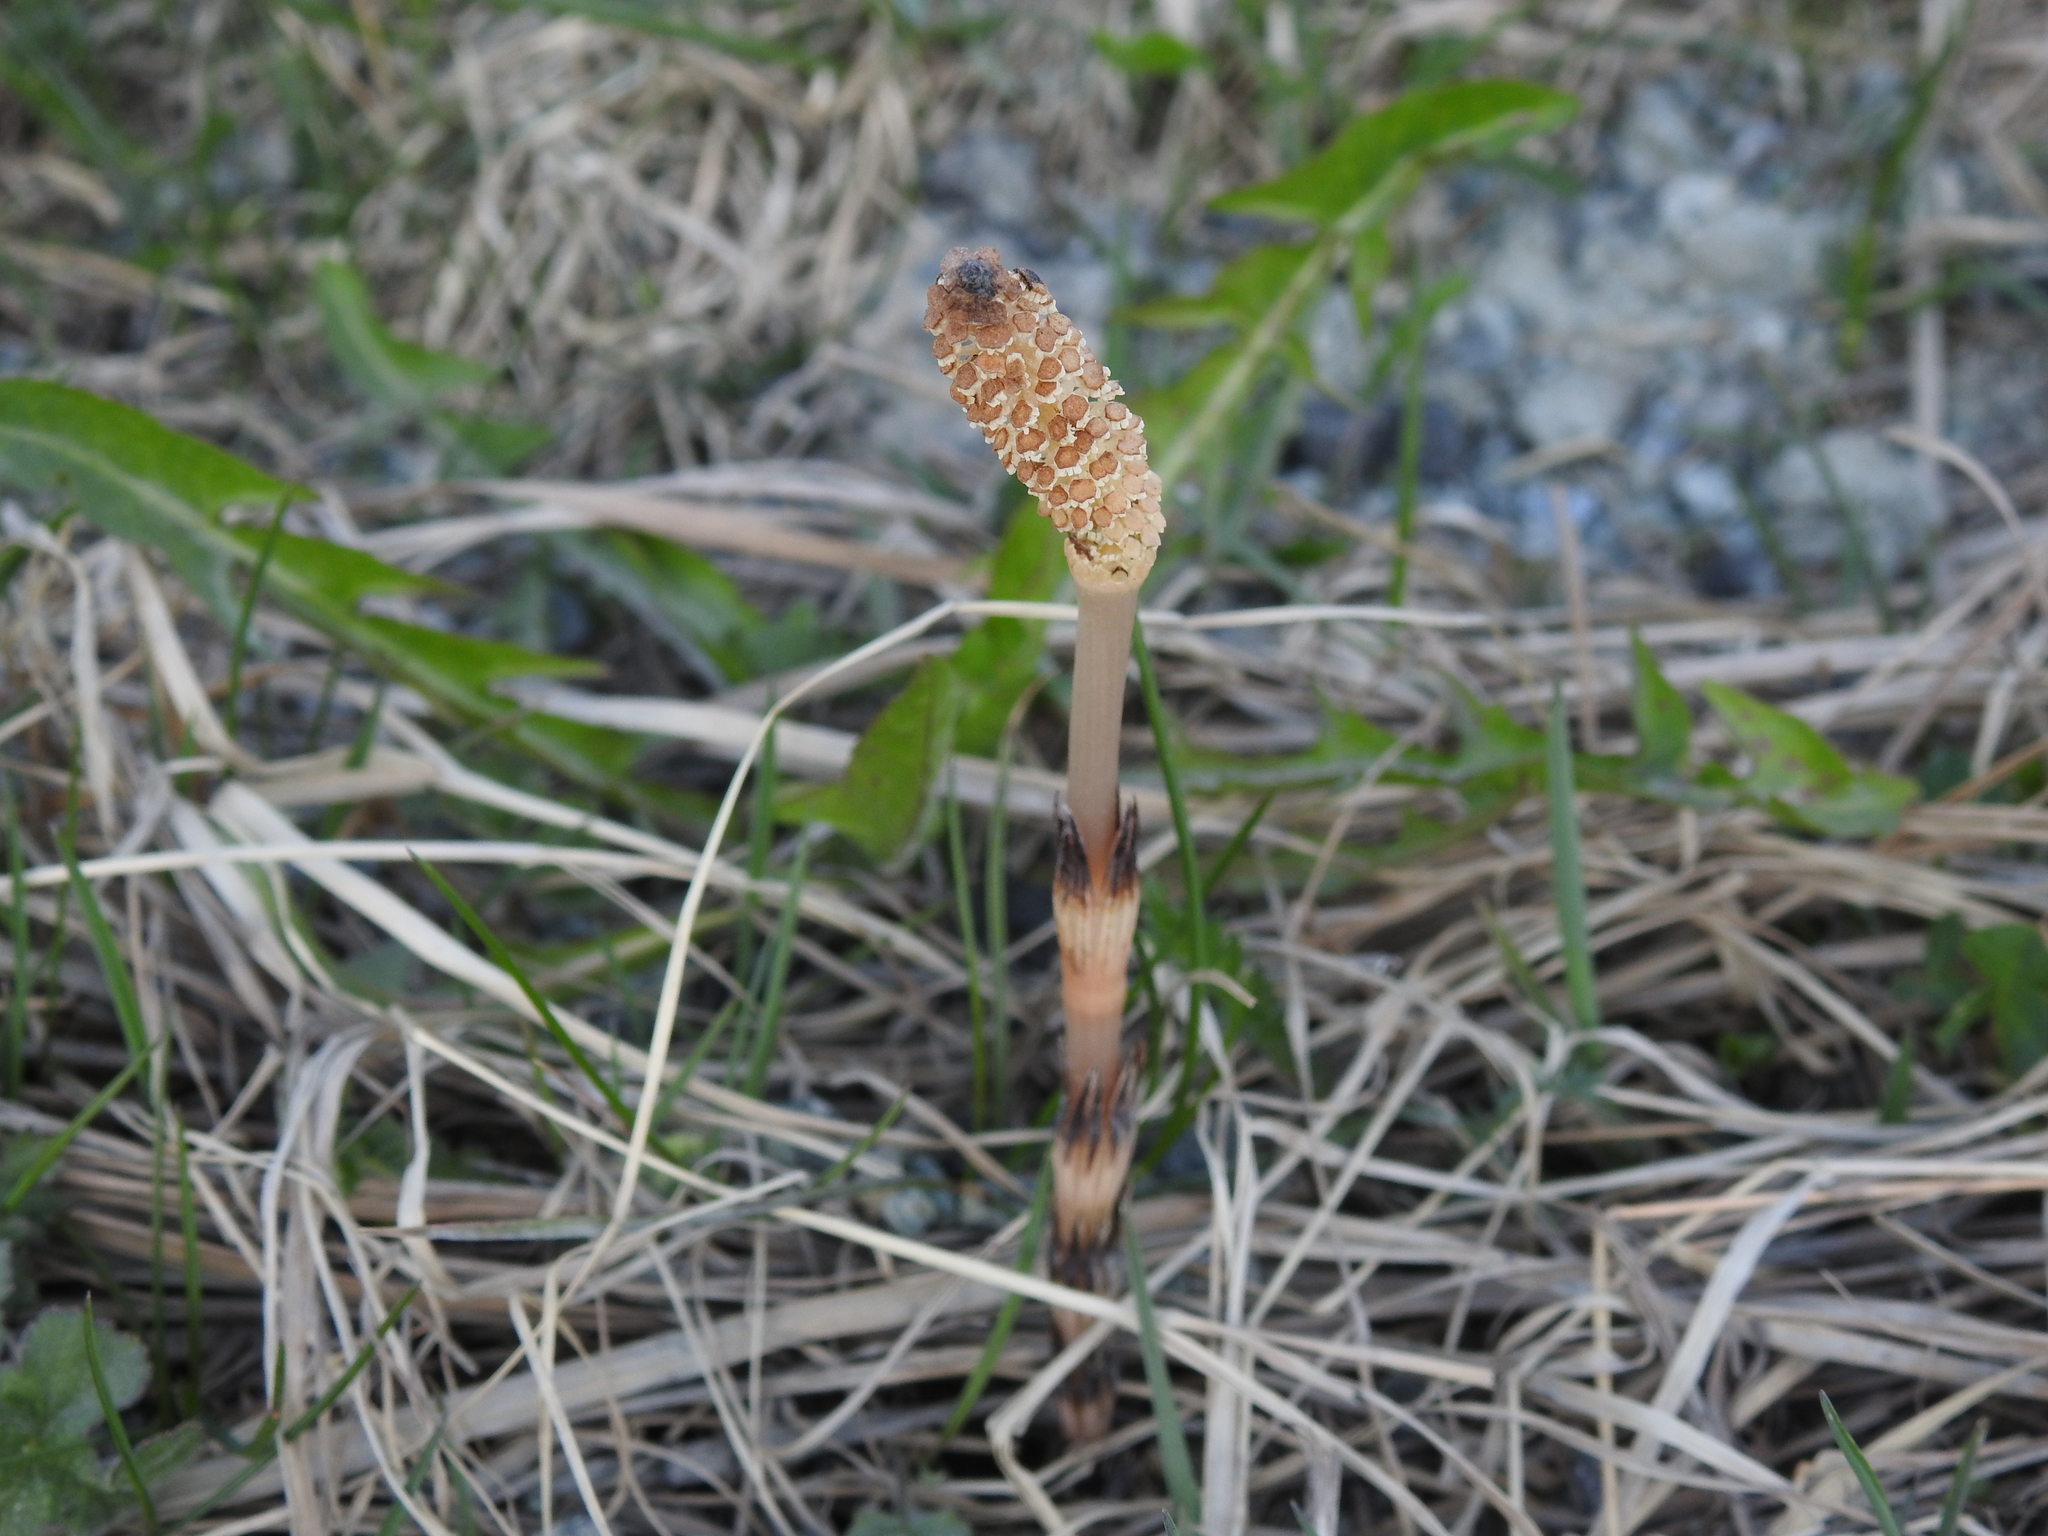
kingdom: Plantae
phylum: Tracheophyta
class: Polypodiopsida
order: Equisetales
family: Equisetaceae
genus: Equisetum
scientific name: Equisetum arvense
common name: Field horsetail
